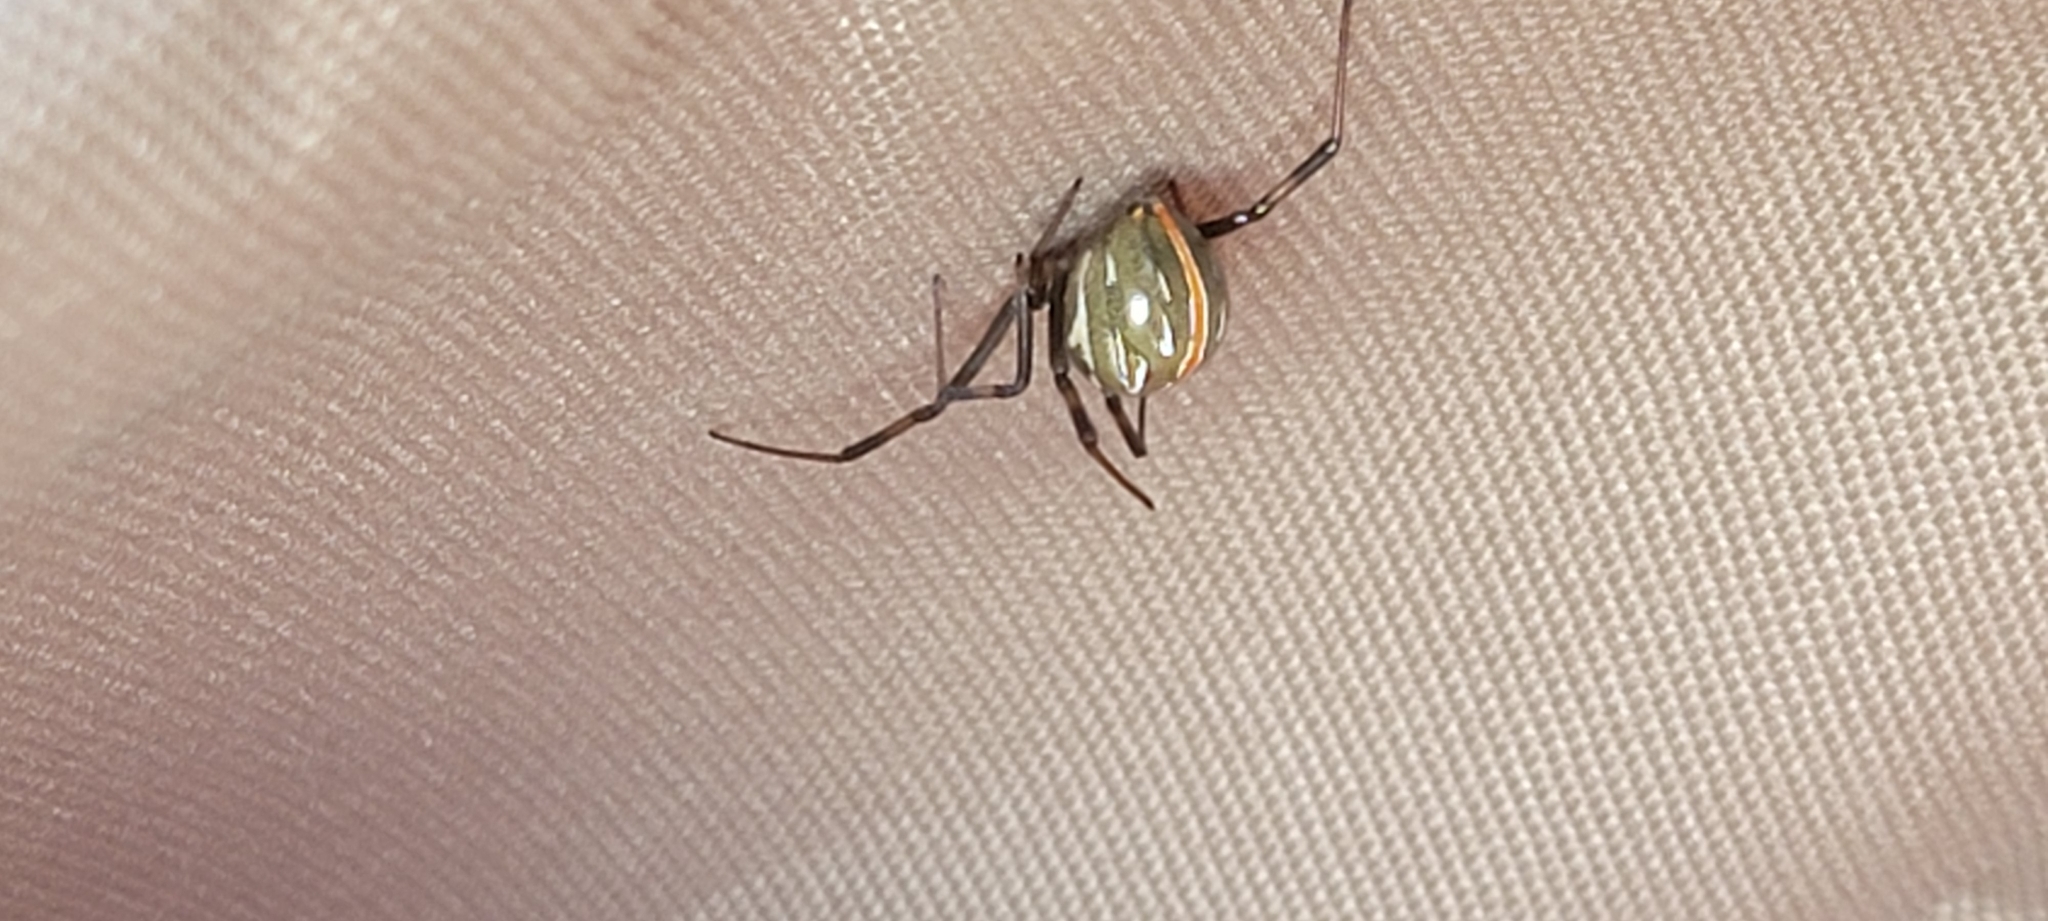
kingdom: Animalia
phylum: Arthropoda
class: Arachnida
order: Araneae
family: Theridiidae
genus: Latrodectus
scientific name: Latrodectus hesperus
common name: Western black widow
